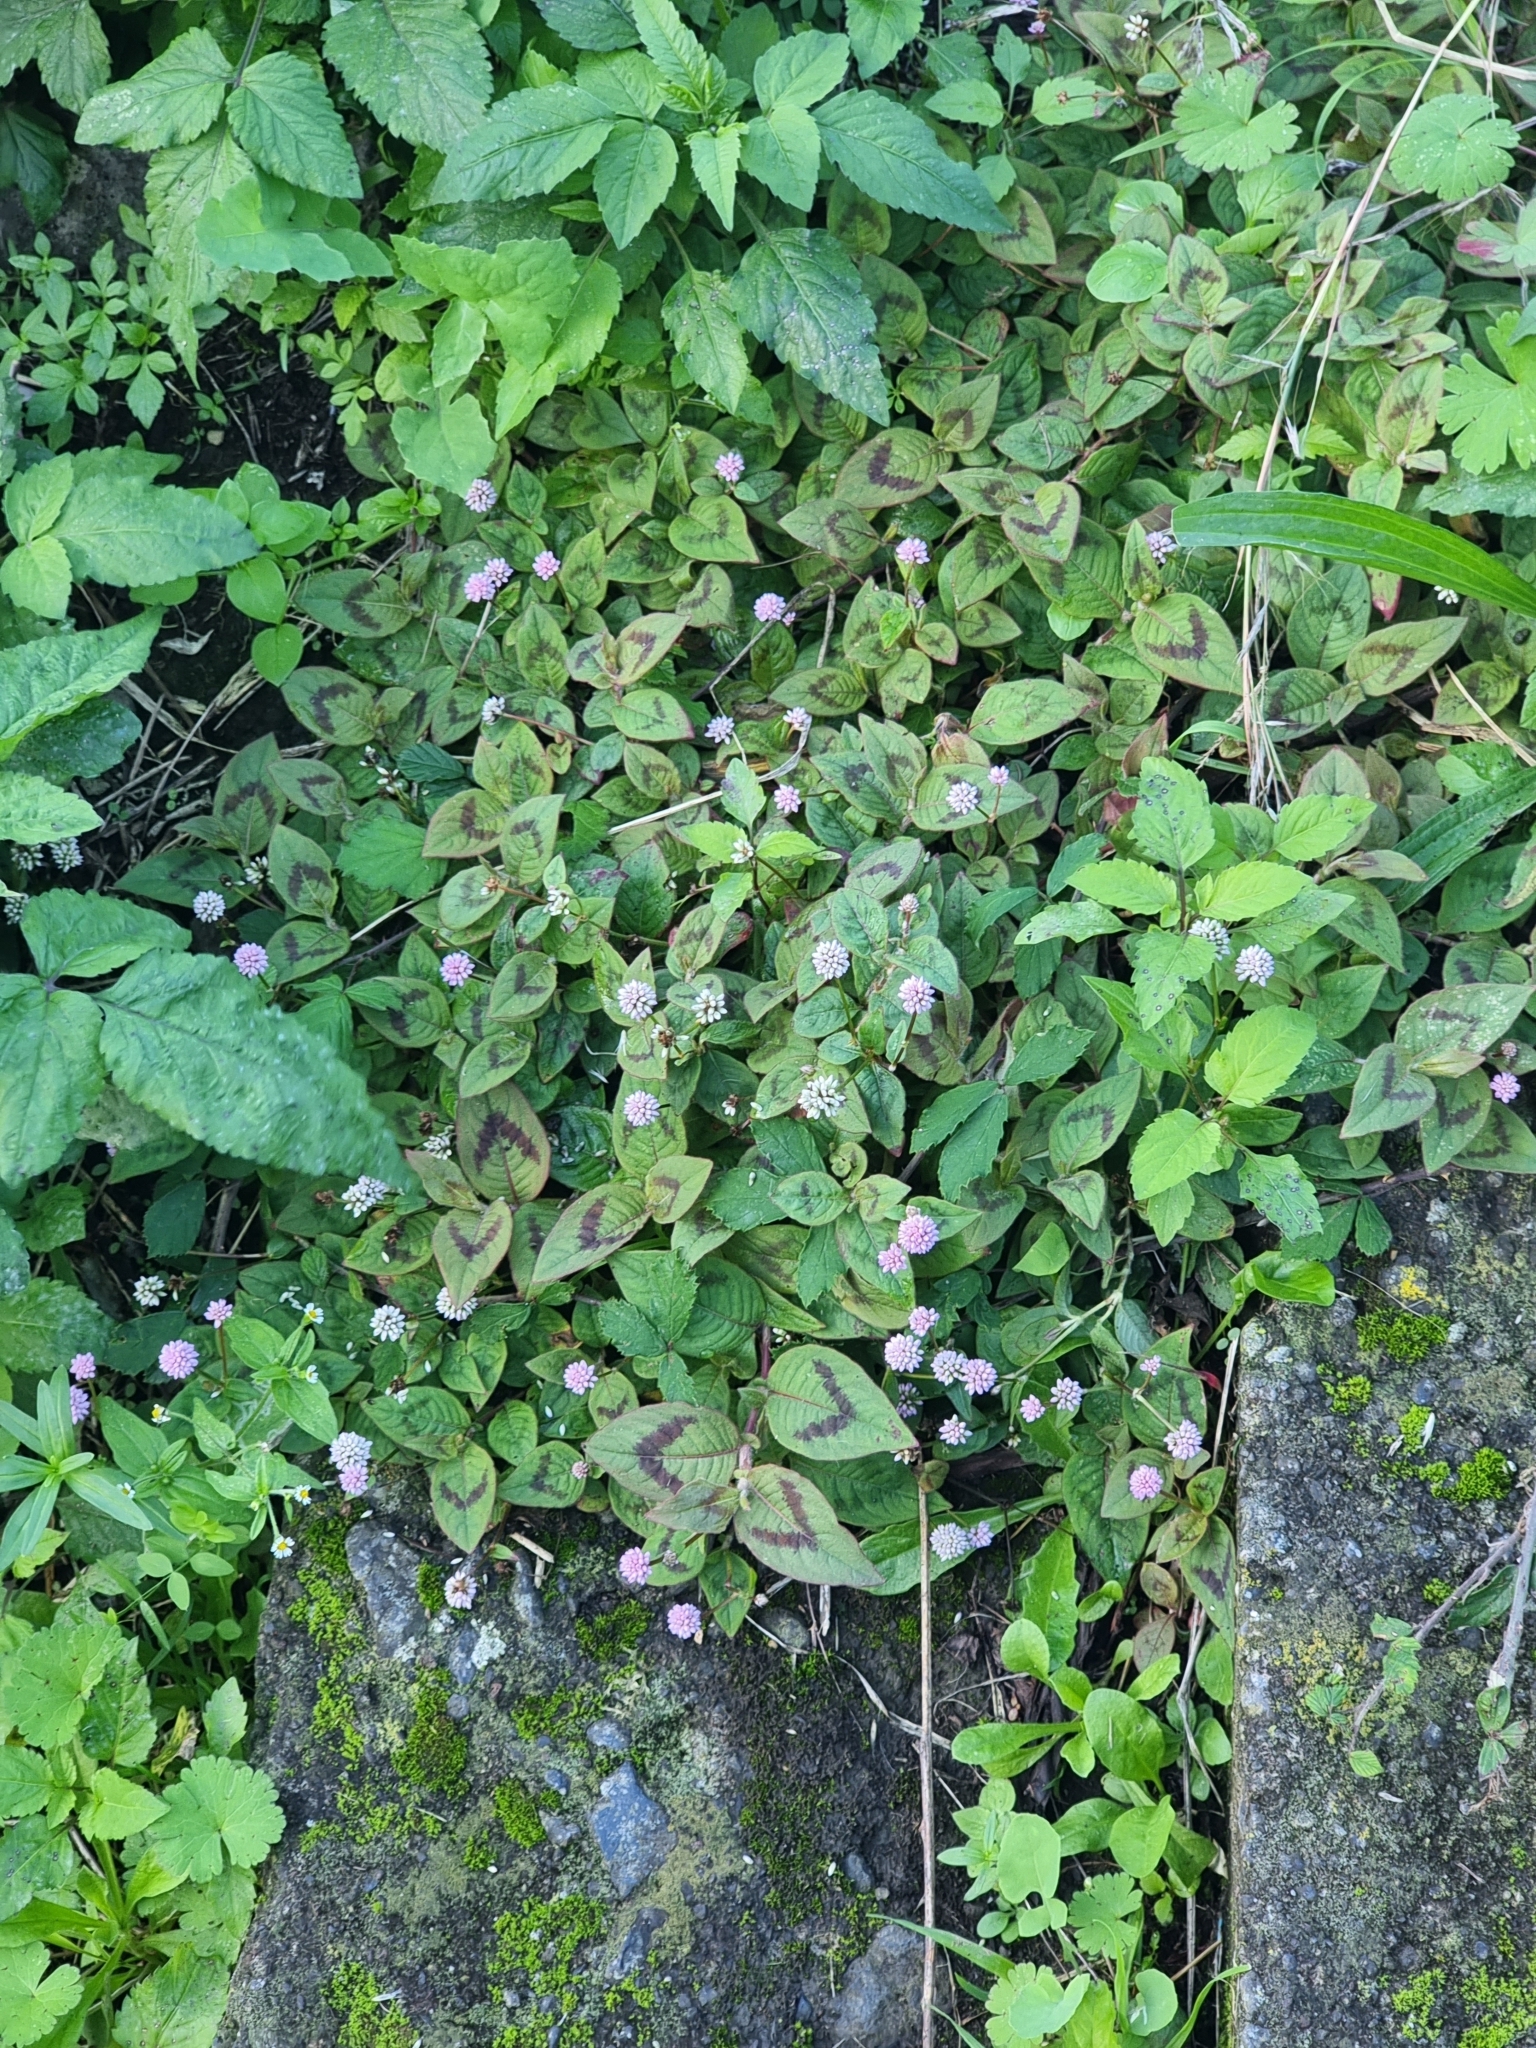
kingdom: Plantae
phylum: Tracheophyta
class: Magnoliopsida
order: Caryophyllales
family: Polygonaceae
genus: Persicaria
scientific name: Persicaria capitata
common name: Pinkhead smartweed
